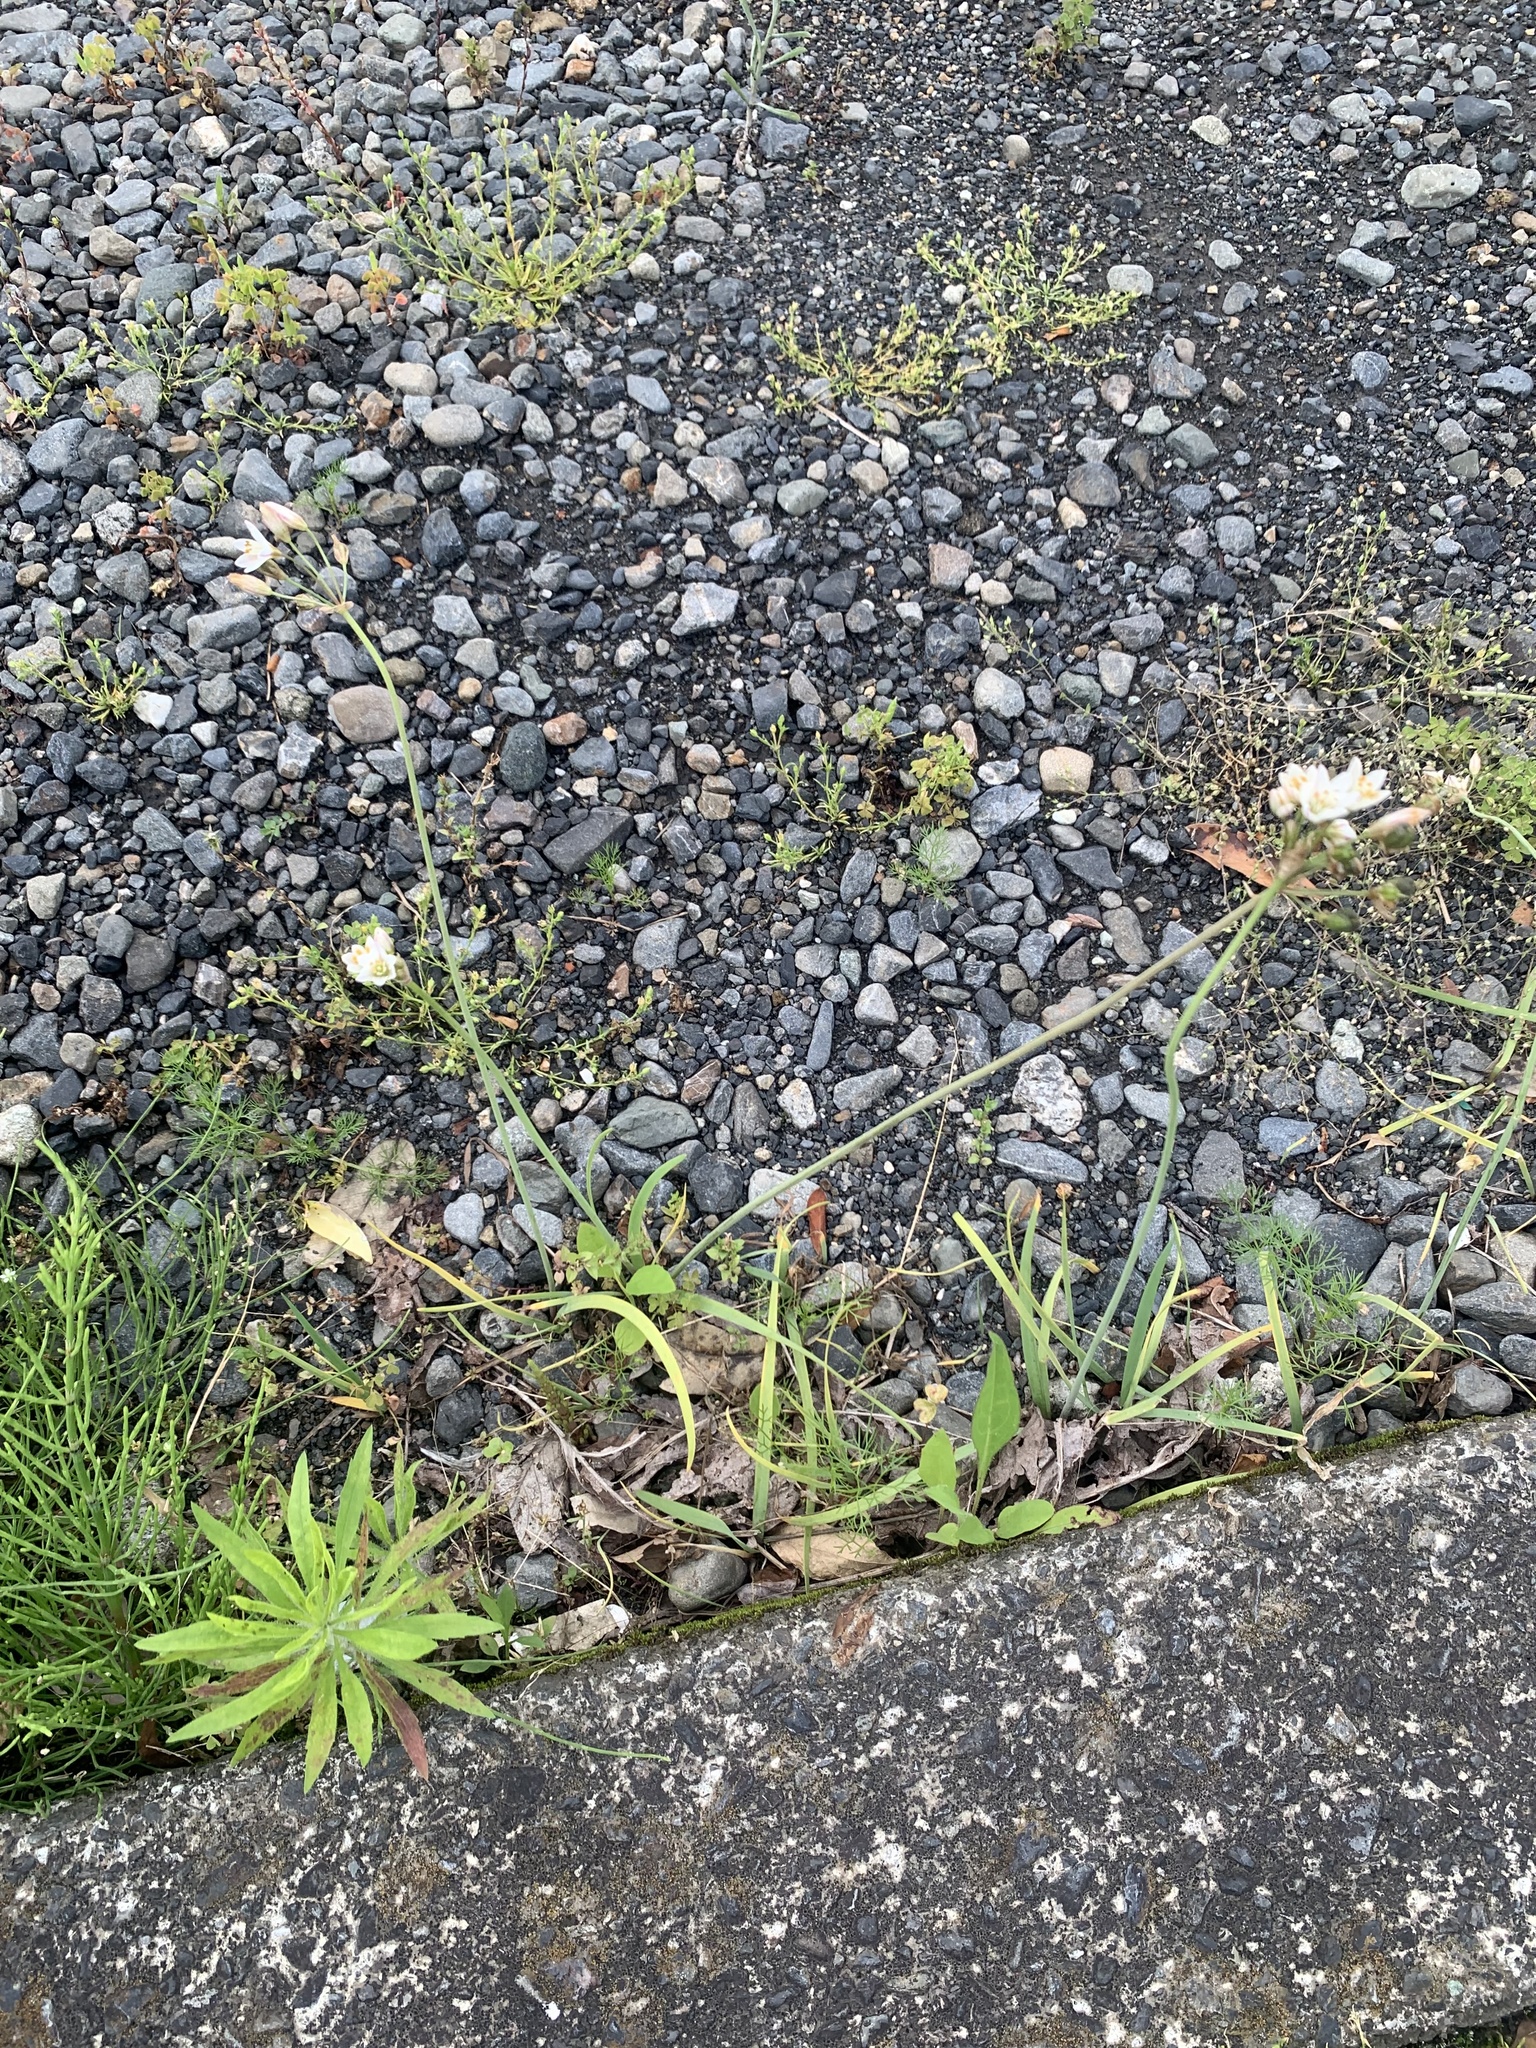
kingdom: Plantae
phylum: Tracheophyta
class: Liliopsida
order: Asparagales
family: Amaryllidaceae
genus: Nothoscordum
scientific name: Nothoscordum gracile
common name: Slender false garlic
